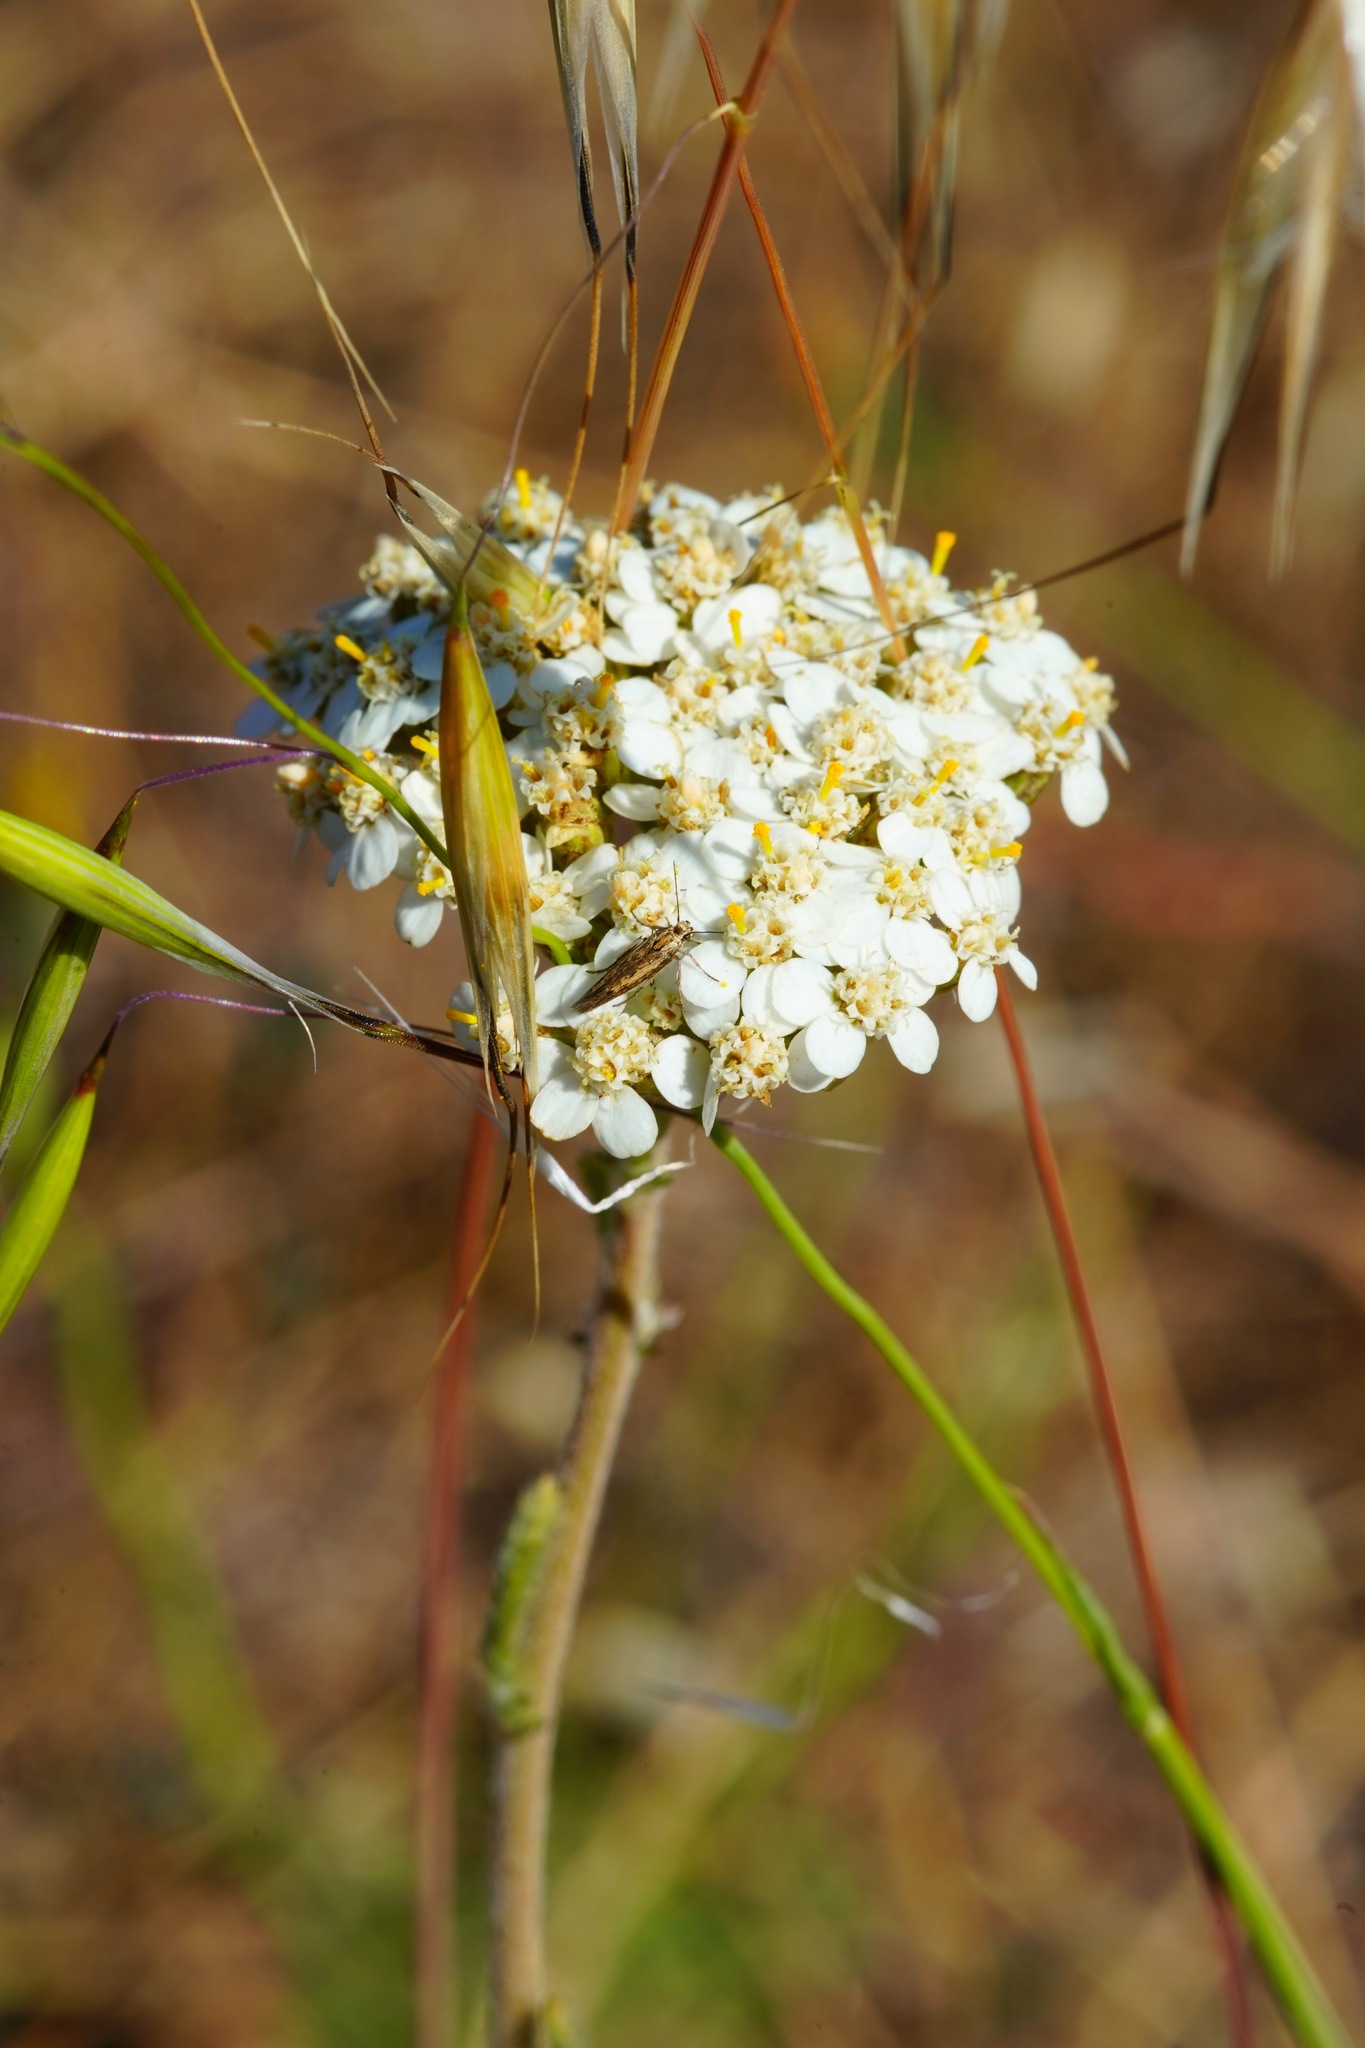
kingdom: Plantae
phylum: Tracheophyta
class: Magnoliopsida
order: Asterales
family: Asteraceae
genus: Achillea
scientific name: Achillea millefolium
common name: Yarrow
